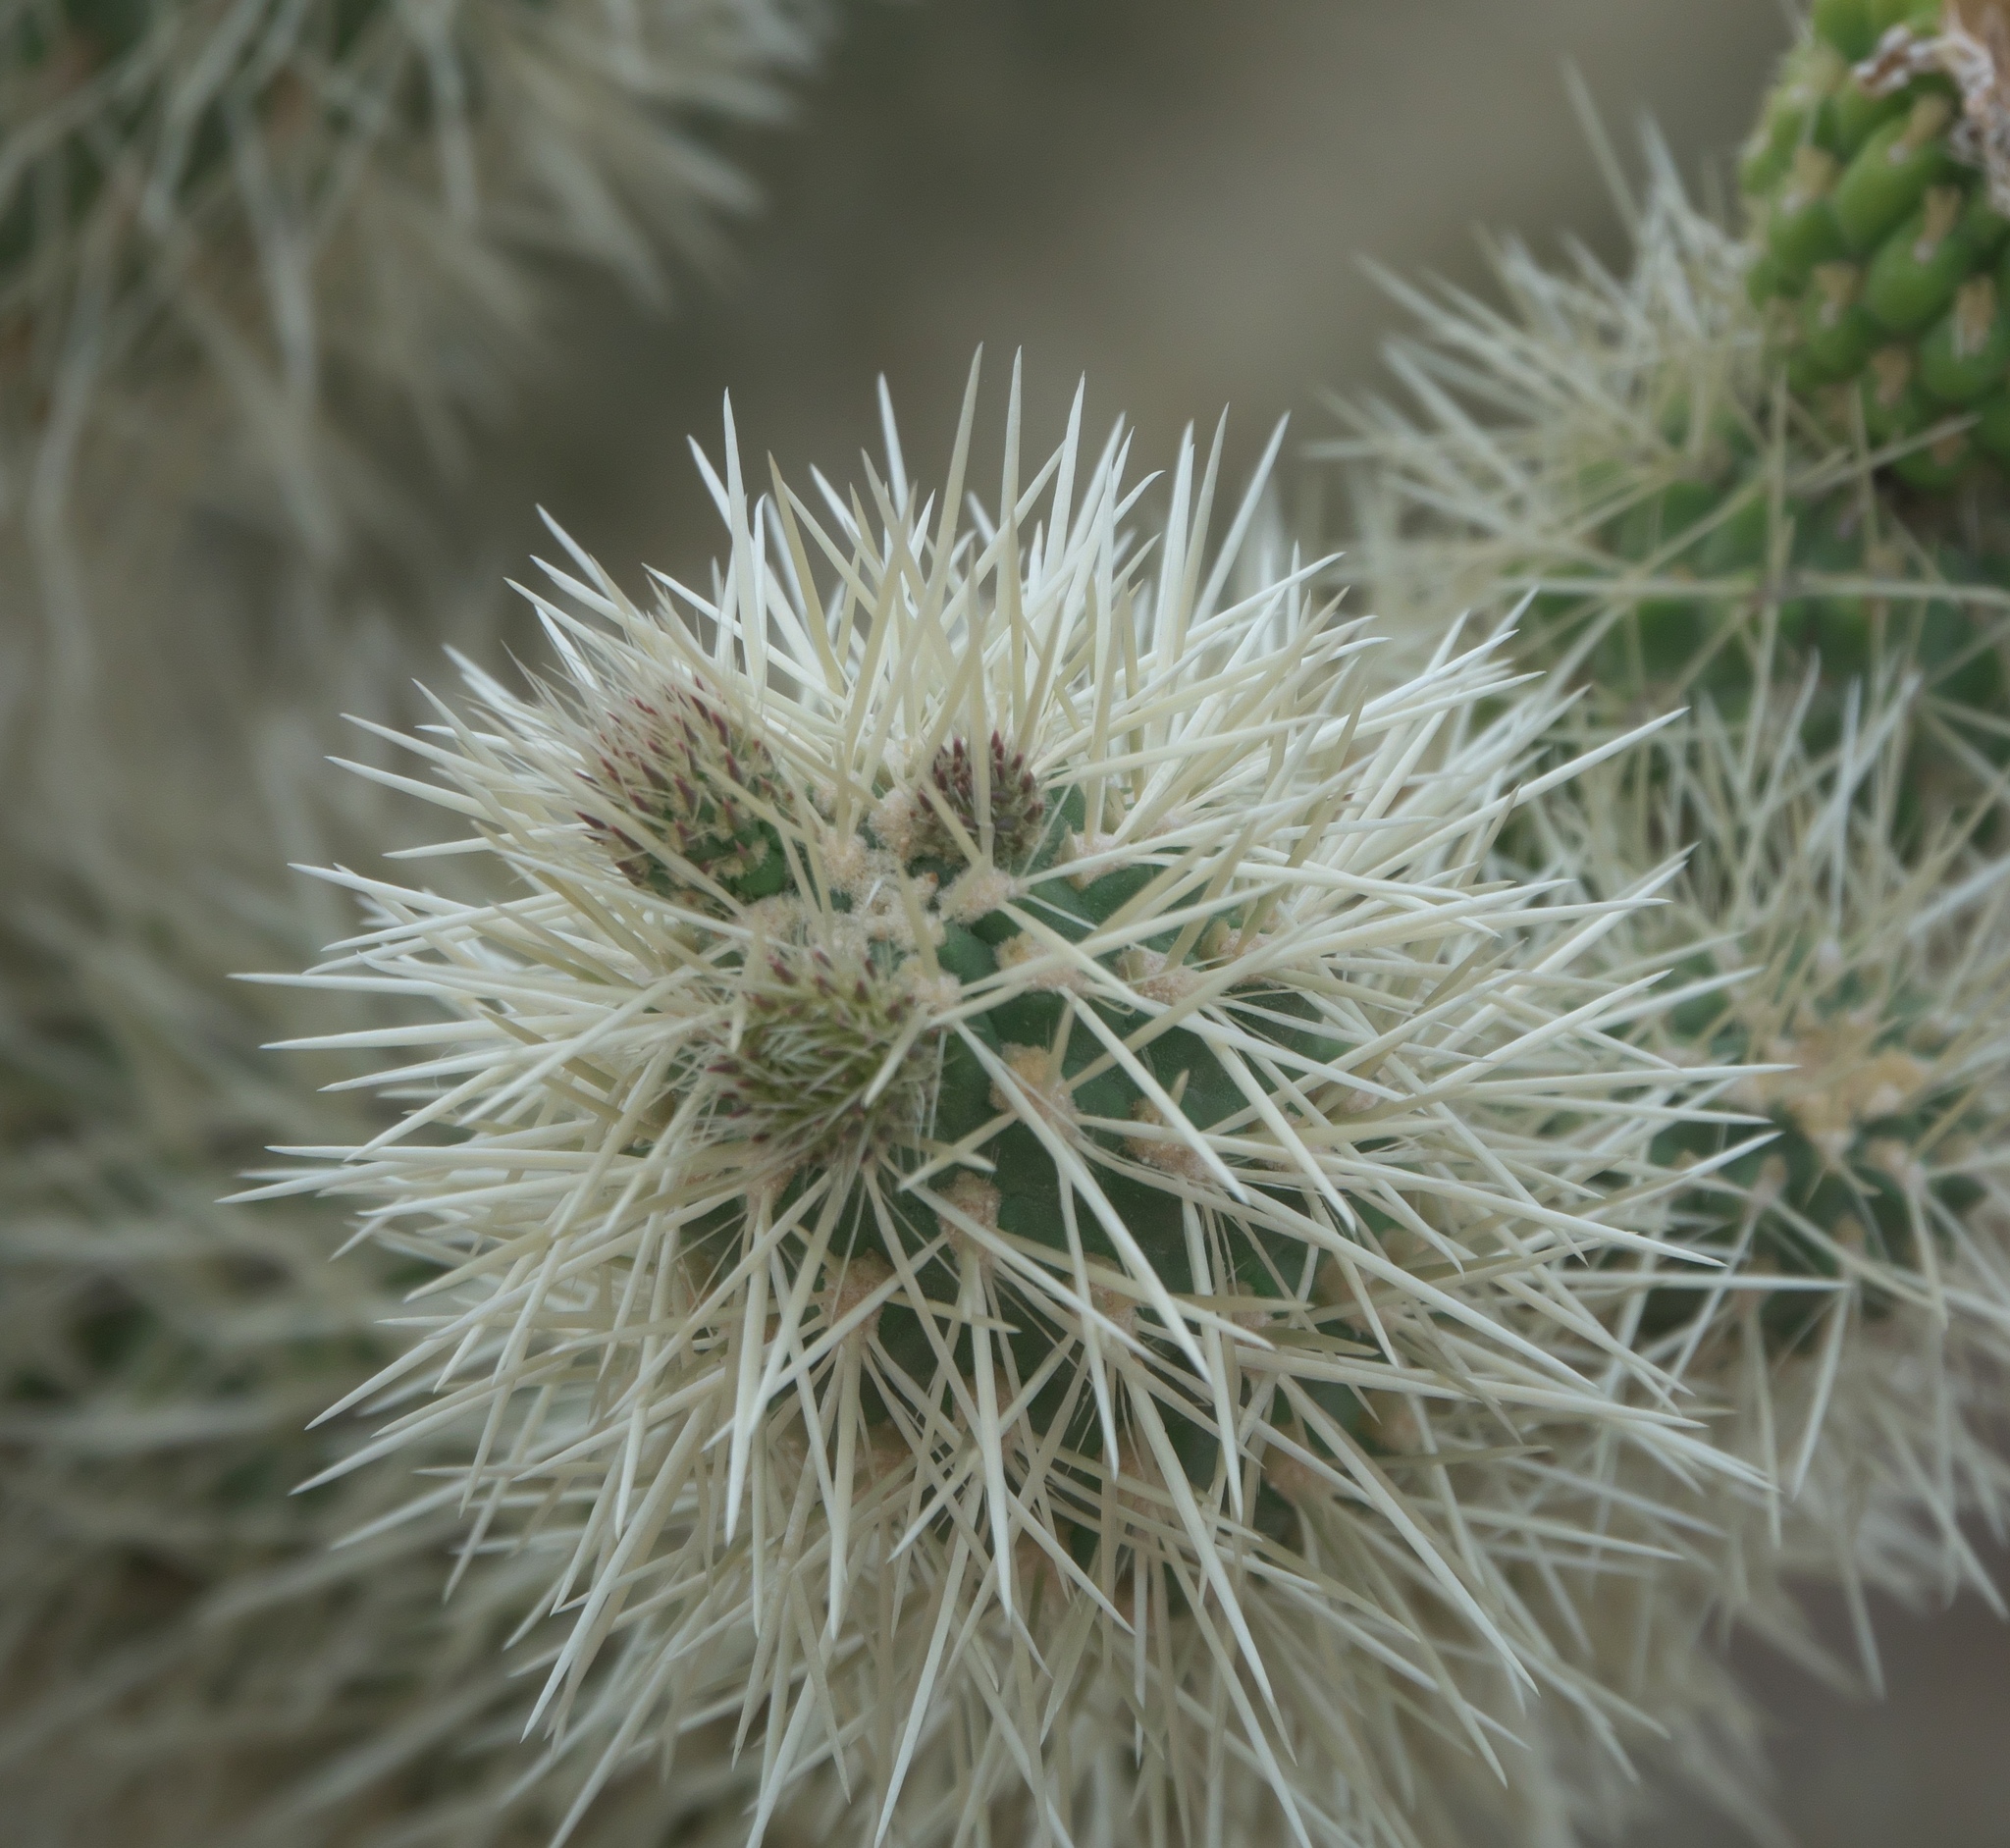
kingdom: Plantae
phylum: Tracheophyta
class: Magnoliopsida
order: Caryophyllales
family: Cactaceae
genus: Cylindropuntia
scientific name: Cylindropuntia fosbergii
